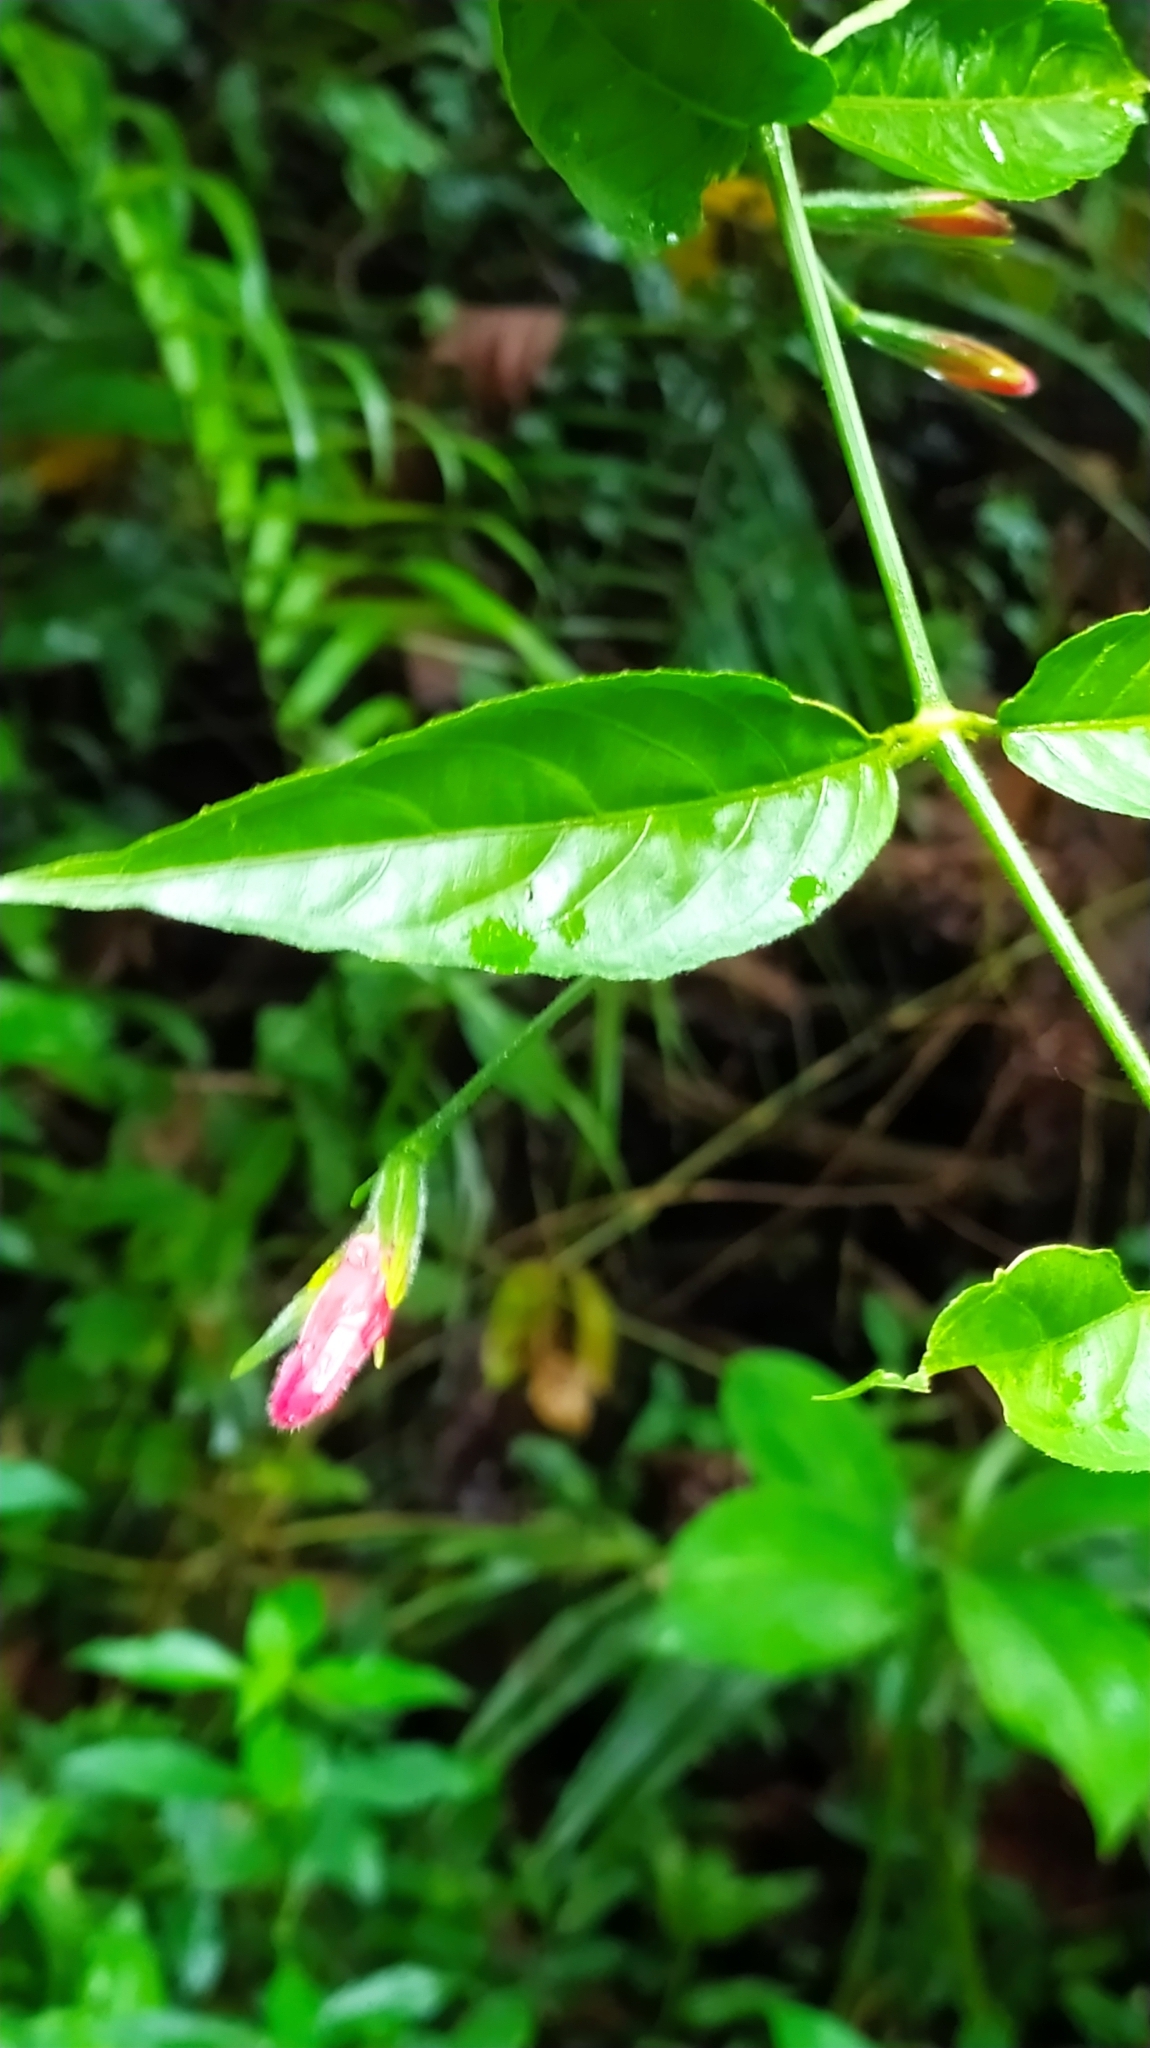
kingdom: Plantae
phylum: Tracheophyta
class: Magnoliopsida
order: Lamiales
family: Acanthaceae
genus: Ruellia
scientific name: Ruellia inflata
